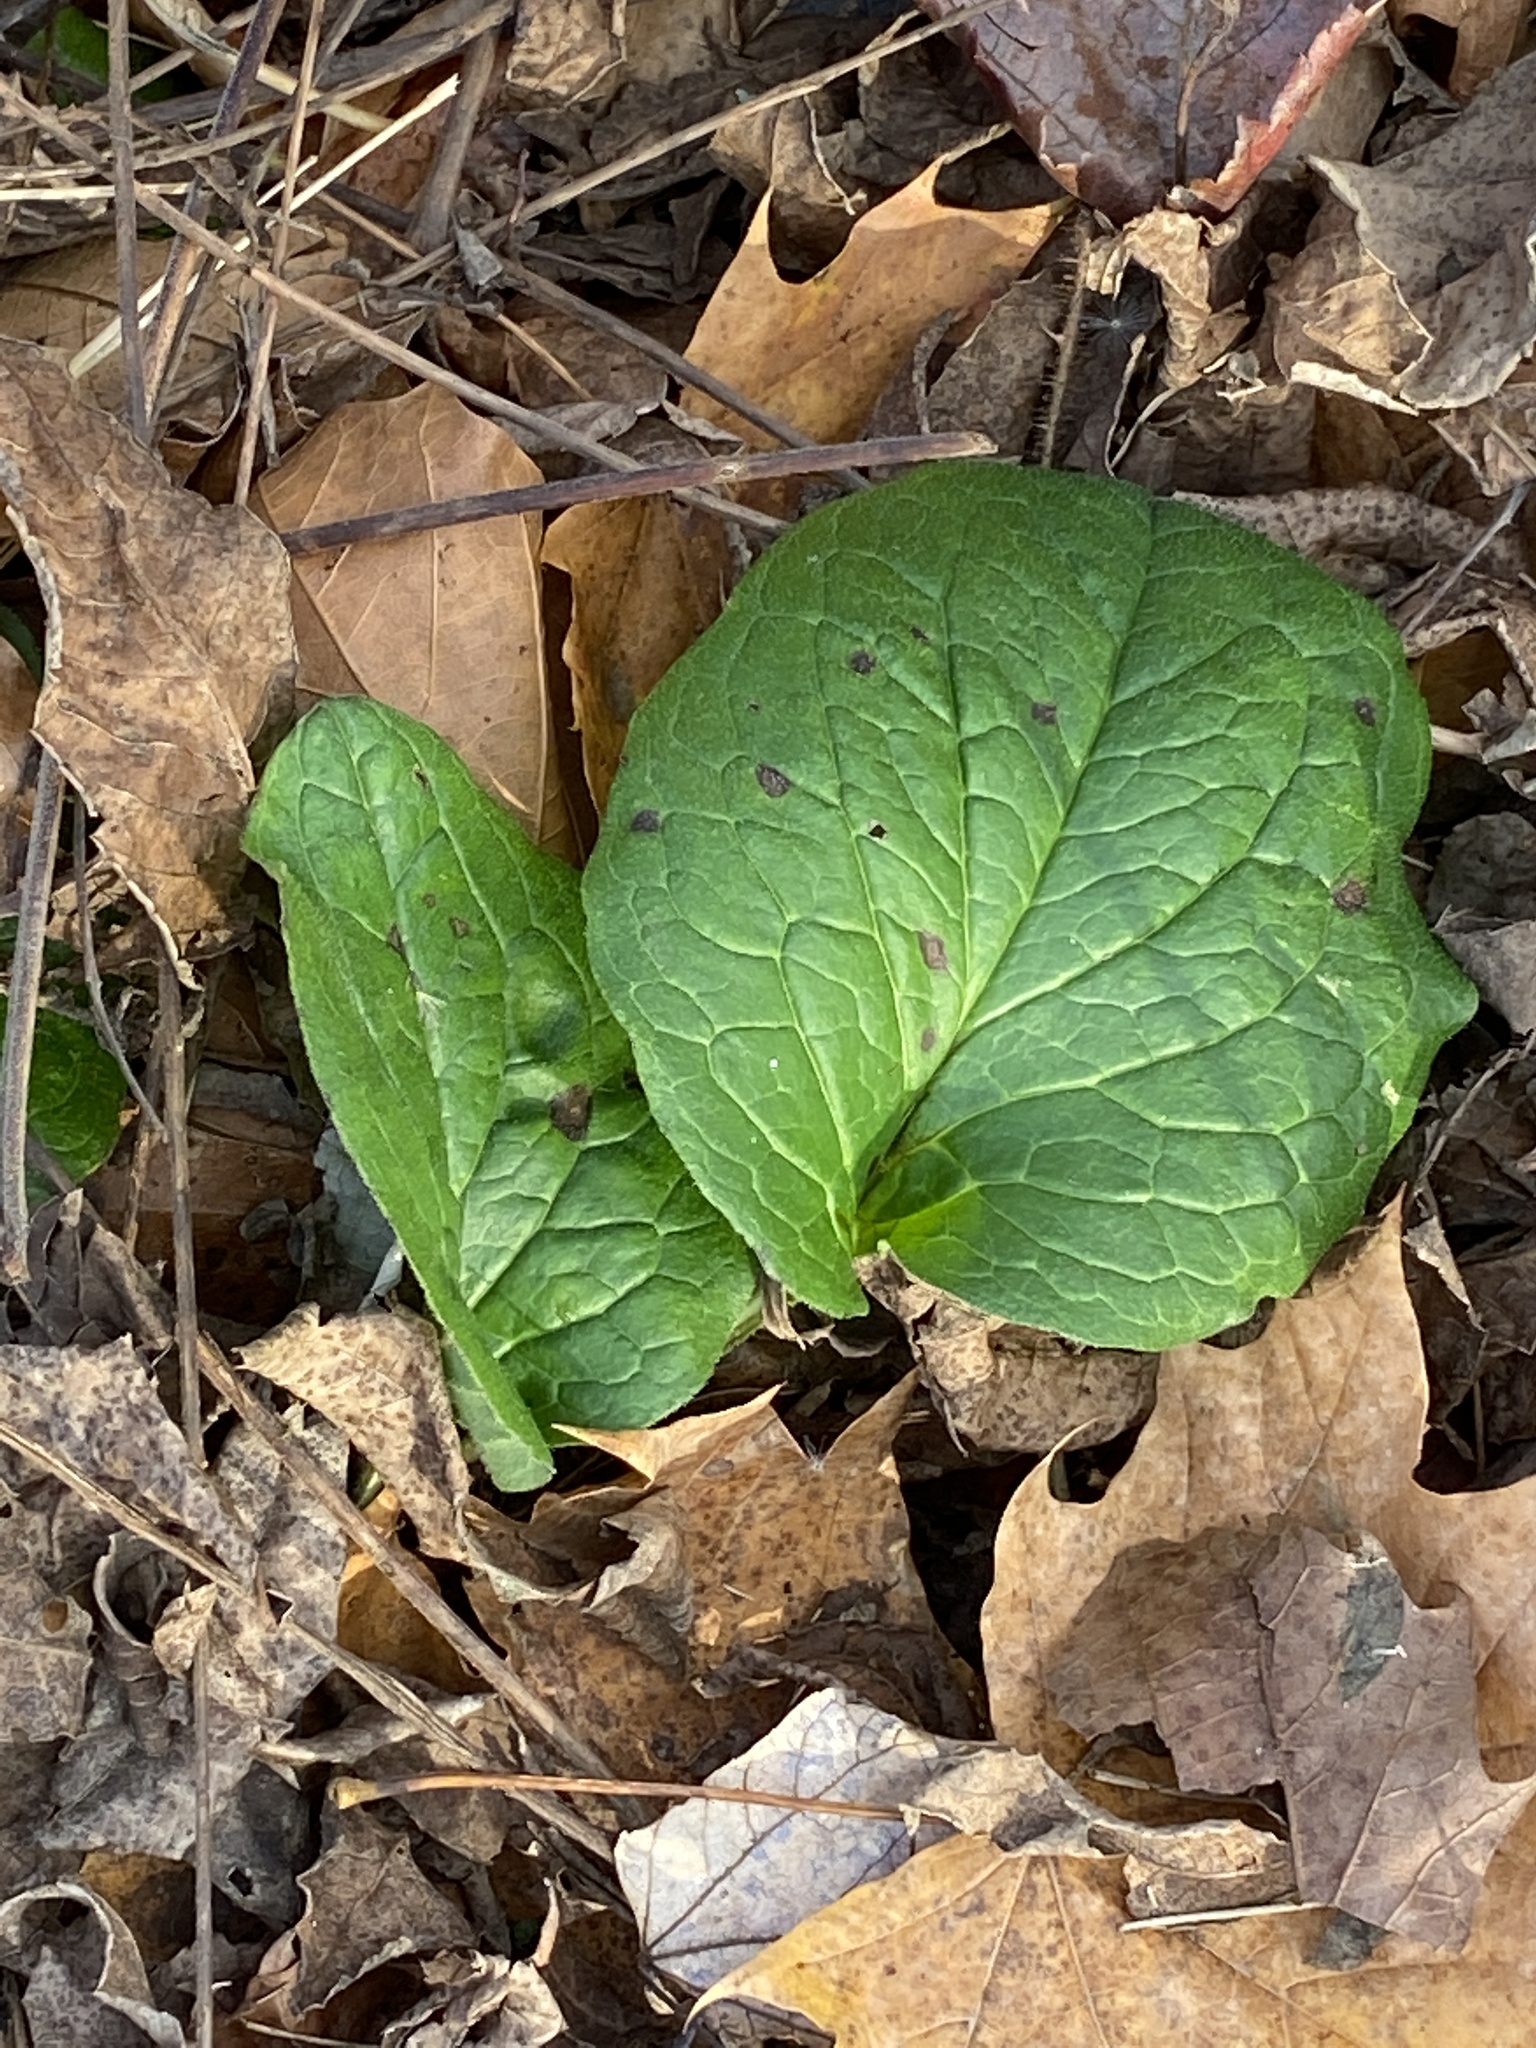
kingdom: Plantae
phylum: Tracheophyta
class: Magnoliopsida
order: Boraginales
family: Boraginaceae
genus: Hackelia
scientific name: Hackelia virginiana
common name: Beggar's-lice
